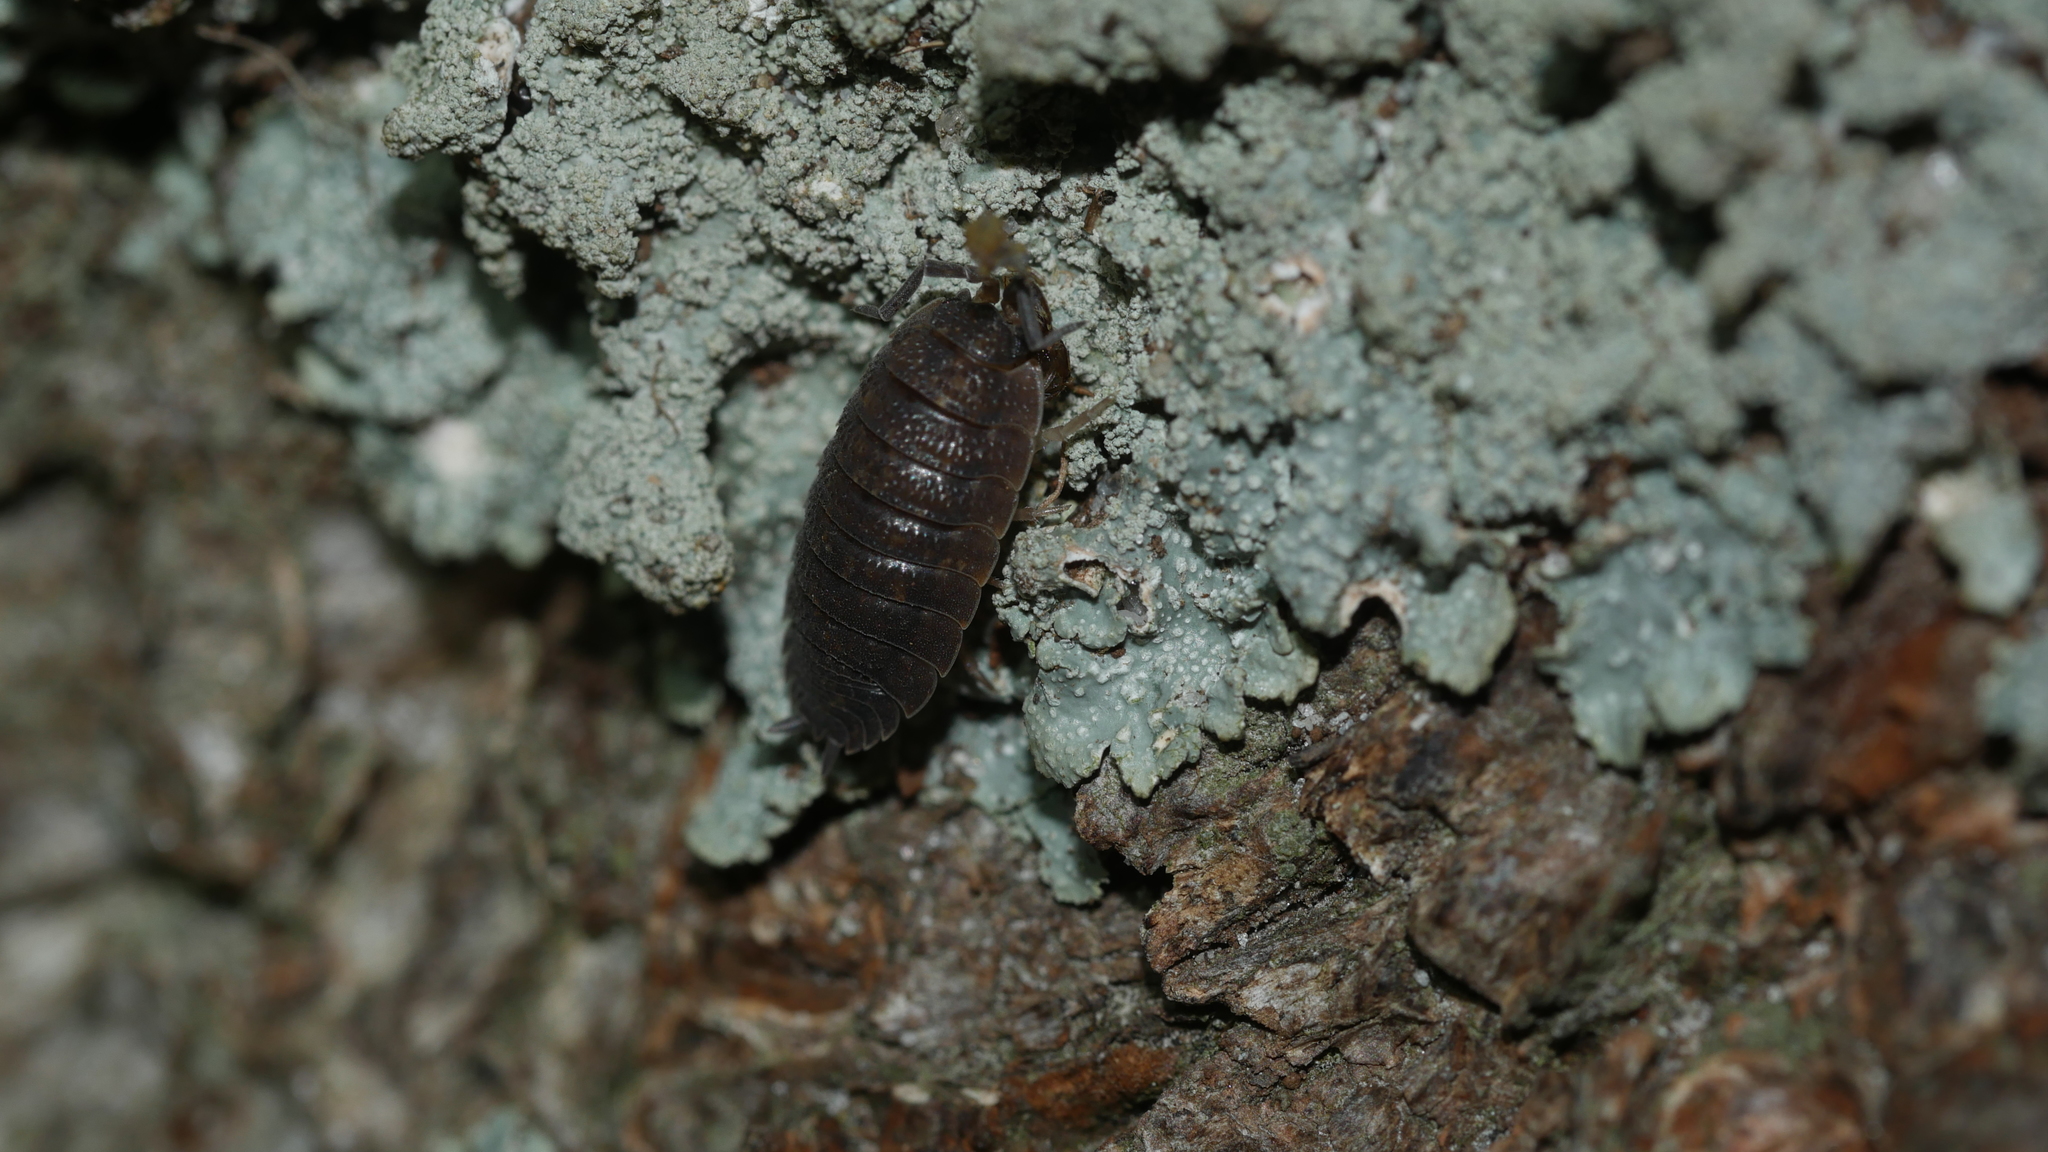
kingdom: Animalia
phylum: Arthropoda
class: Malacostraca
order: Isopoda
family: Porcellionidae
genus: Porcellio
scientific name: Porcellio scaber
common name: Common rough woodlouse
